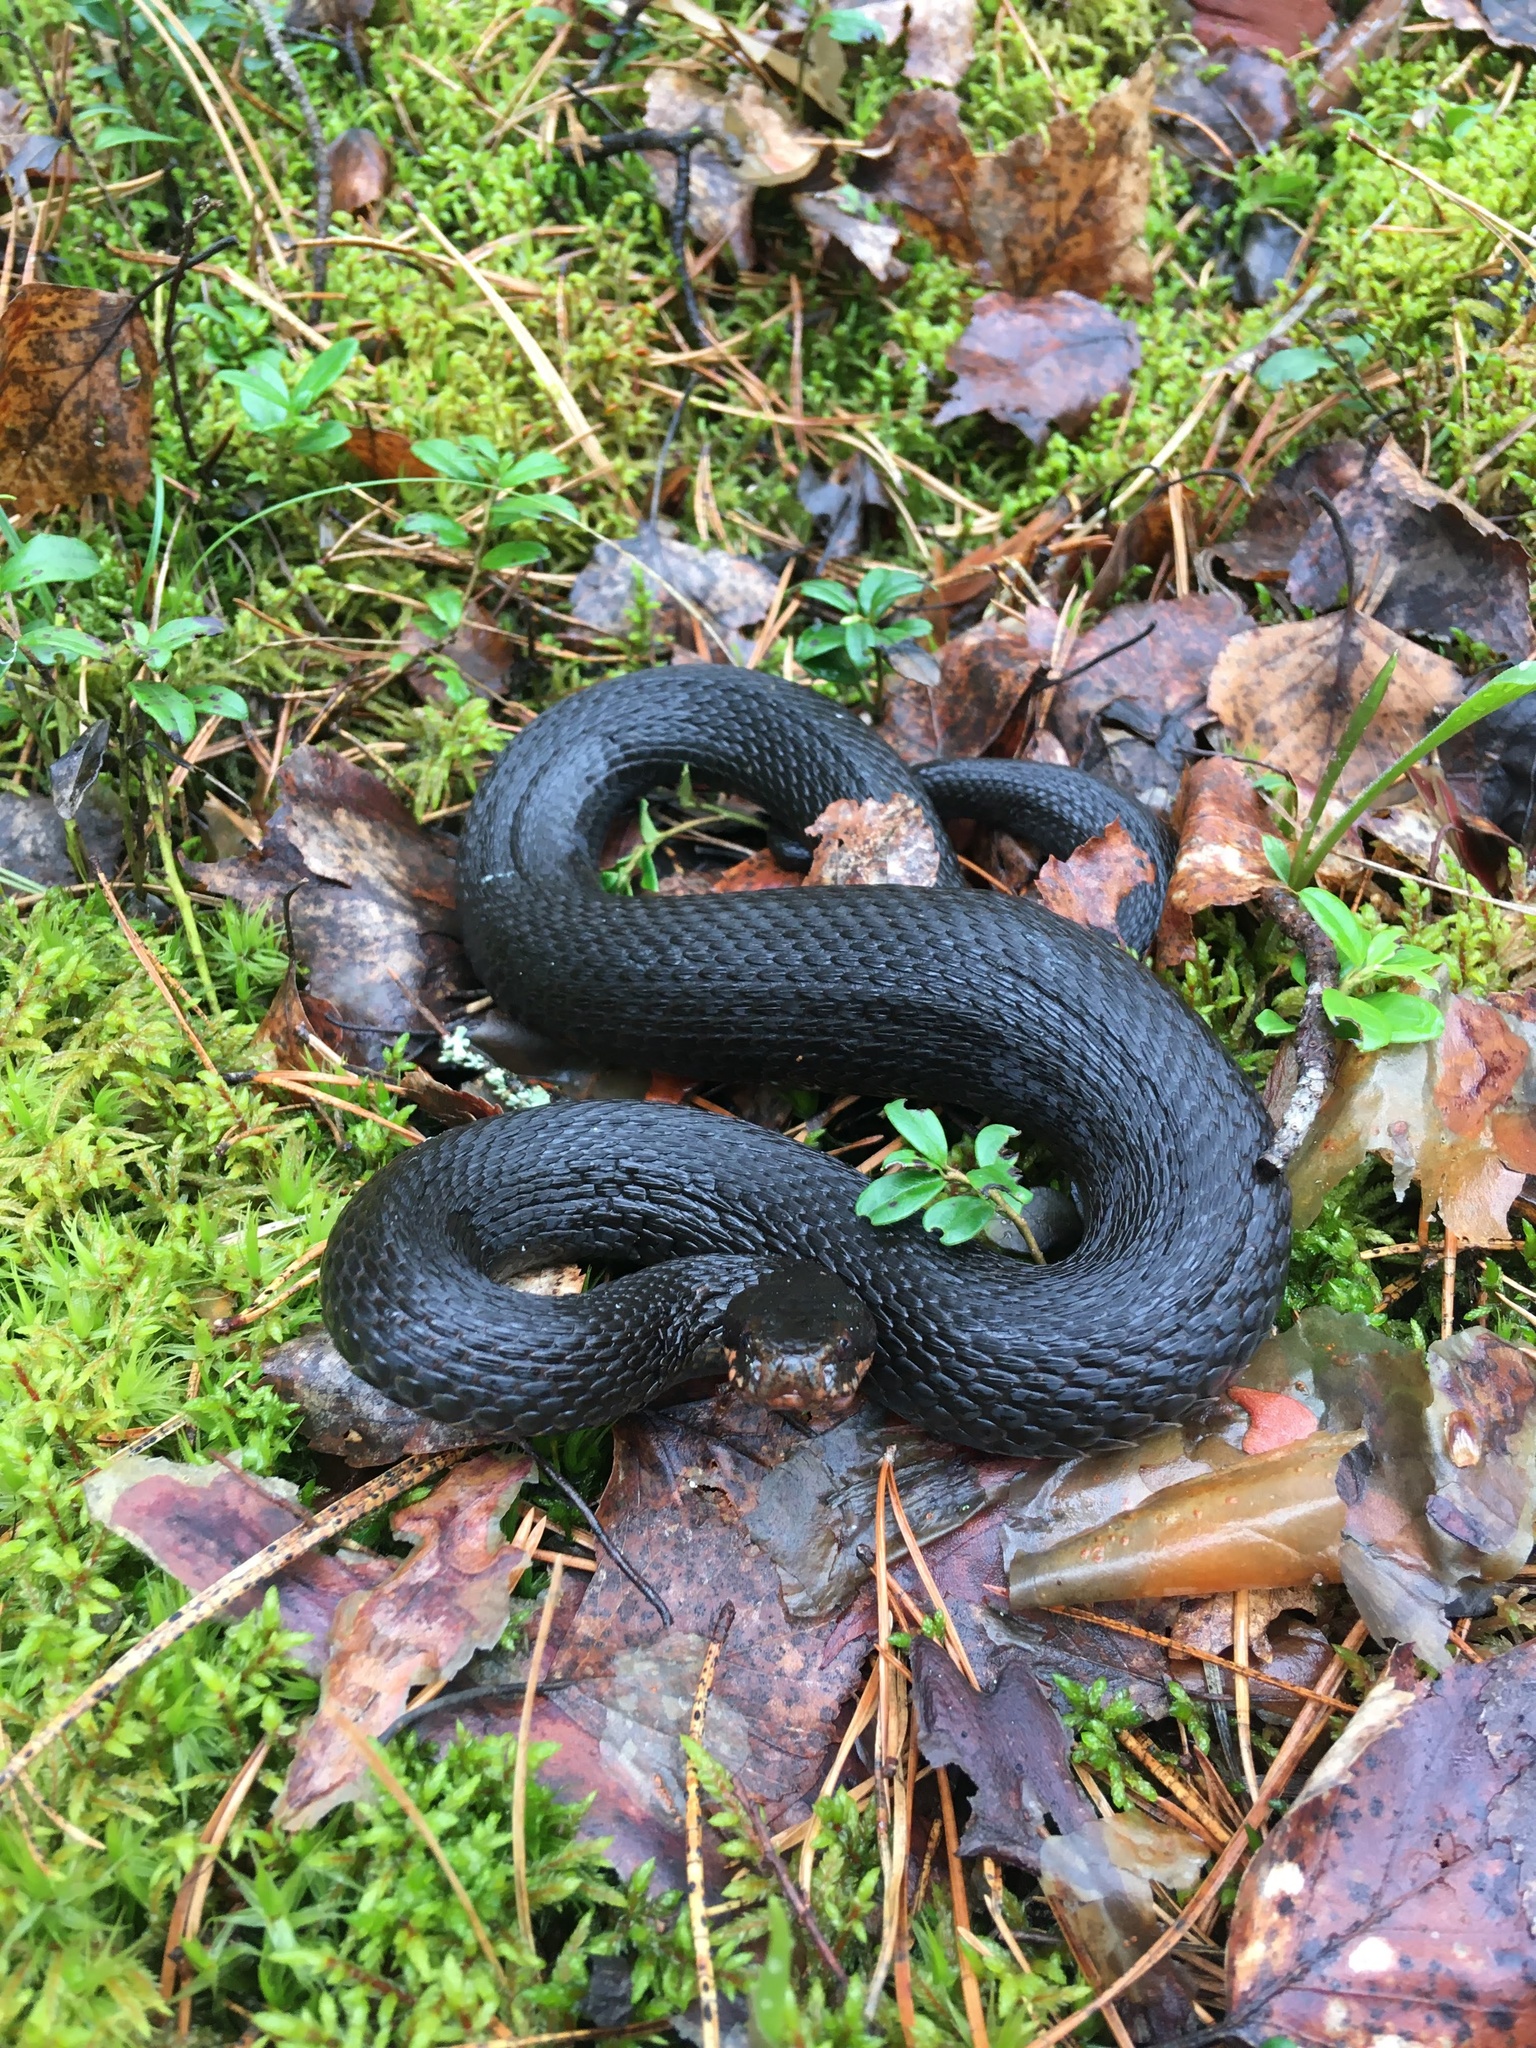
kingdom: Animalia
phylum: Chordata
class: Squamata
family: Viperidae
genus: Vipera
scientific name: Vipera berus
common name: Adder
